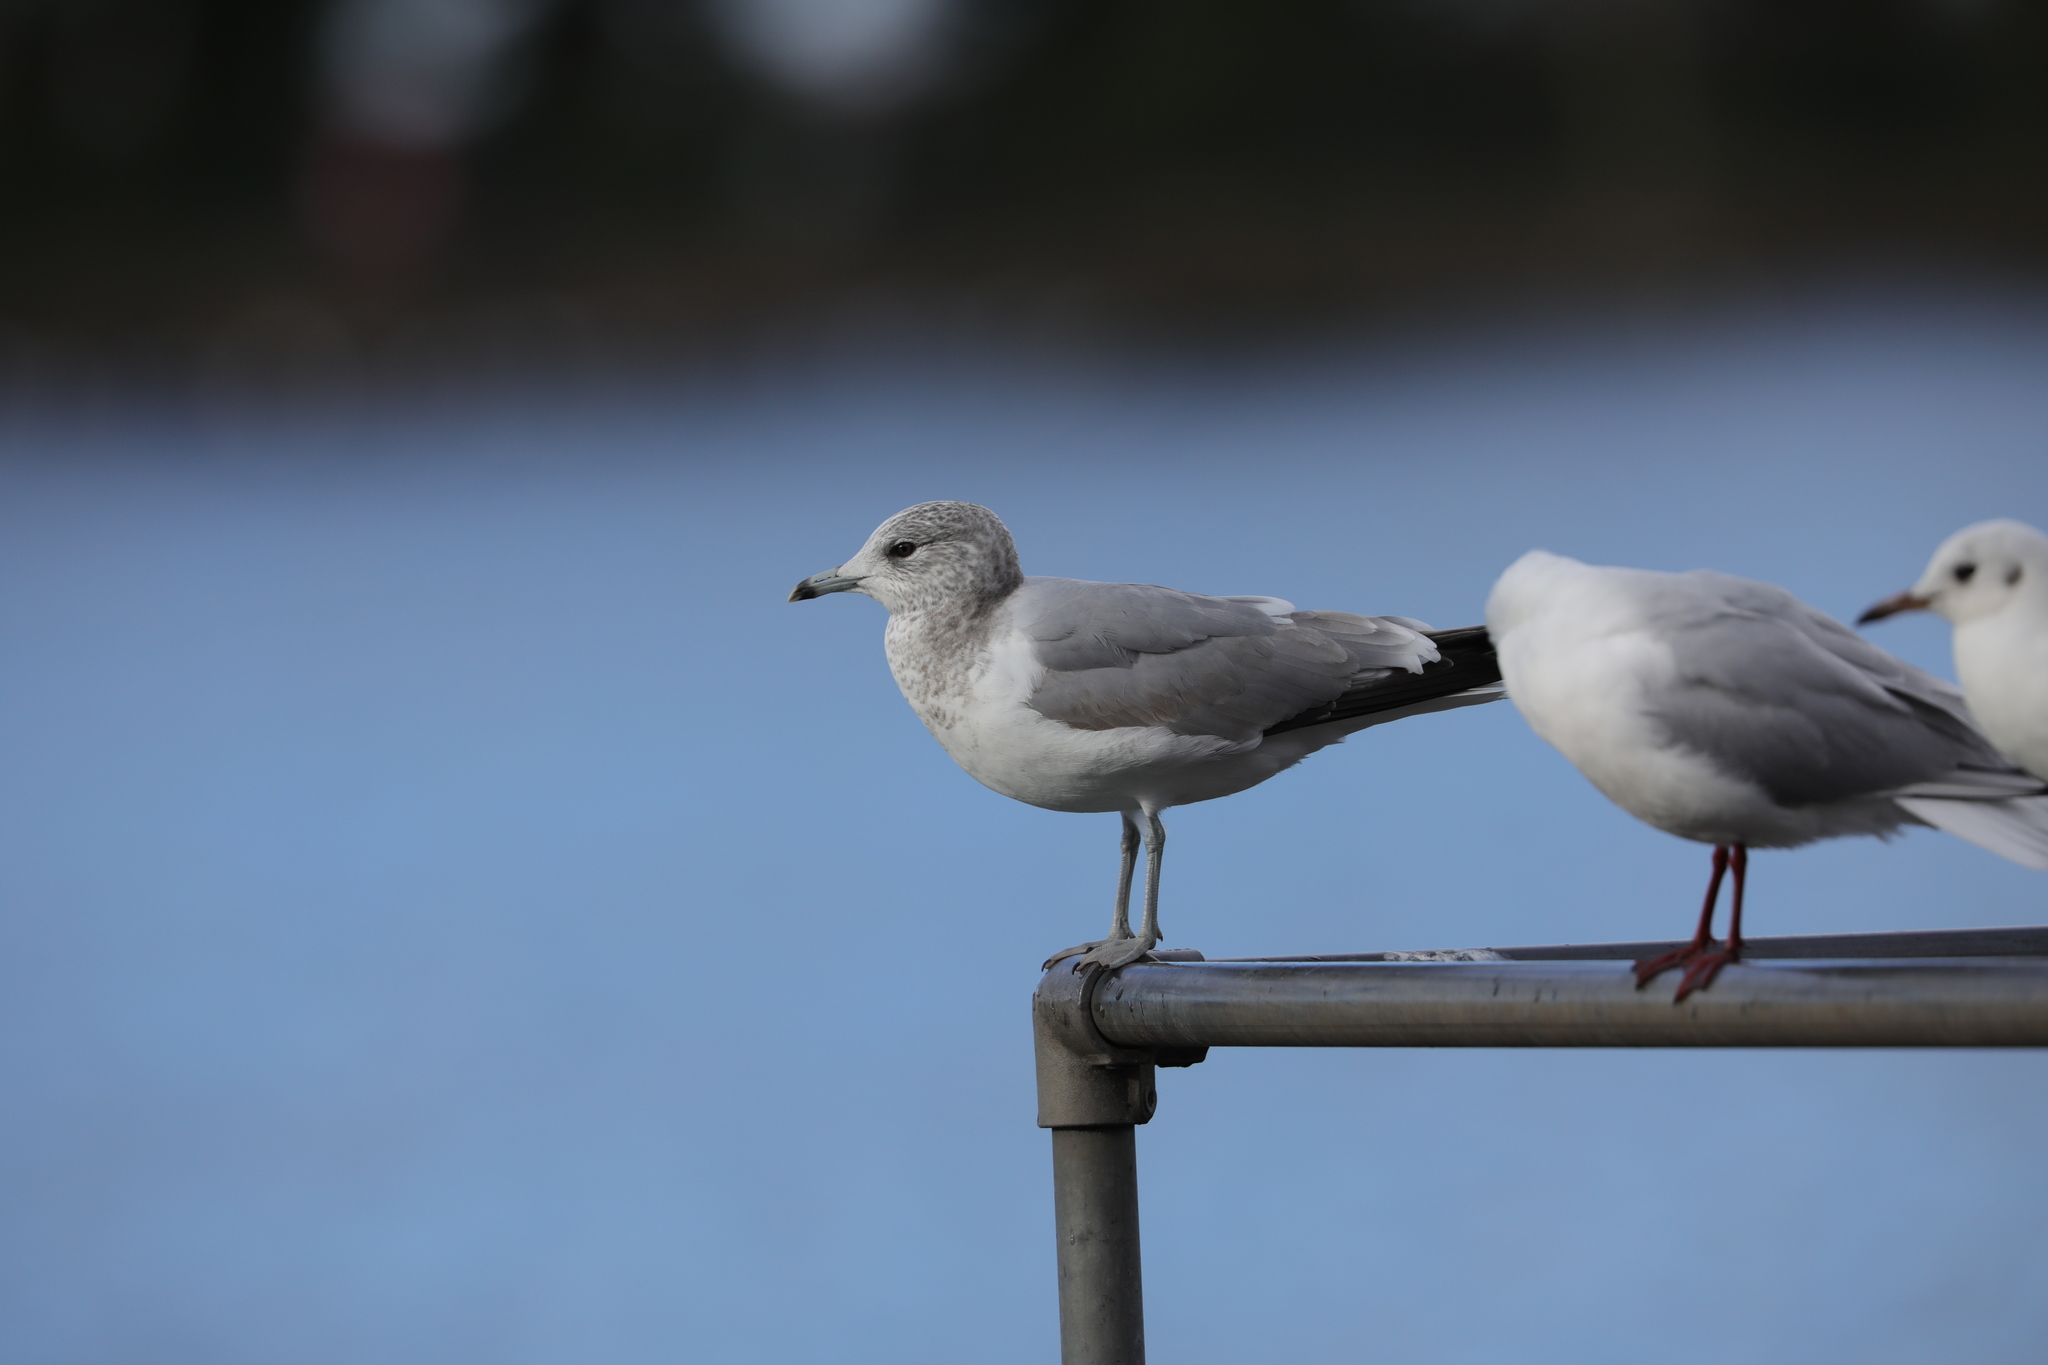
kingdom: Animalia
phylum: Chordata
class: Aves
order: Charadriiformes
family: Laridae
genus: Larus
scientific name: Larus canus
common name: Mew gull
